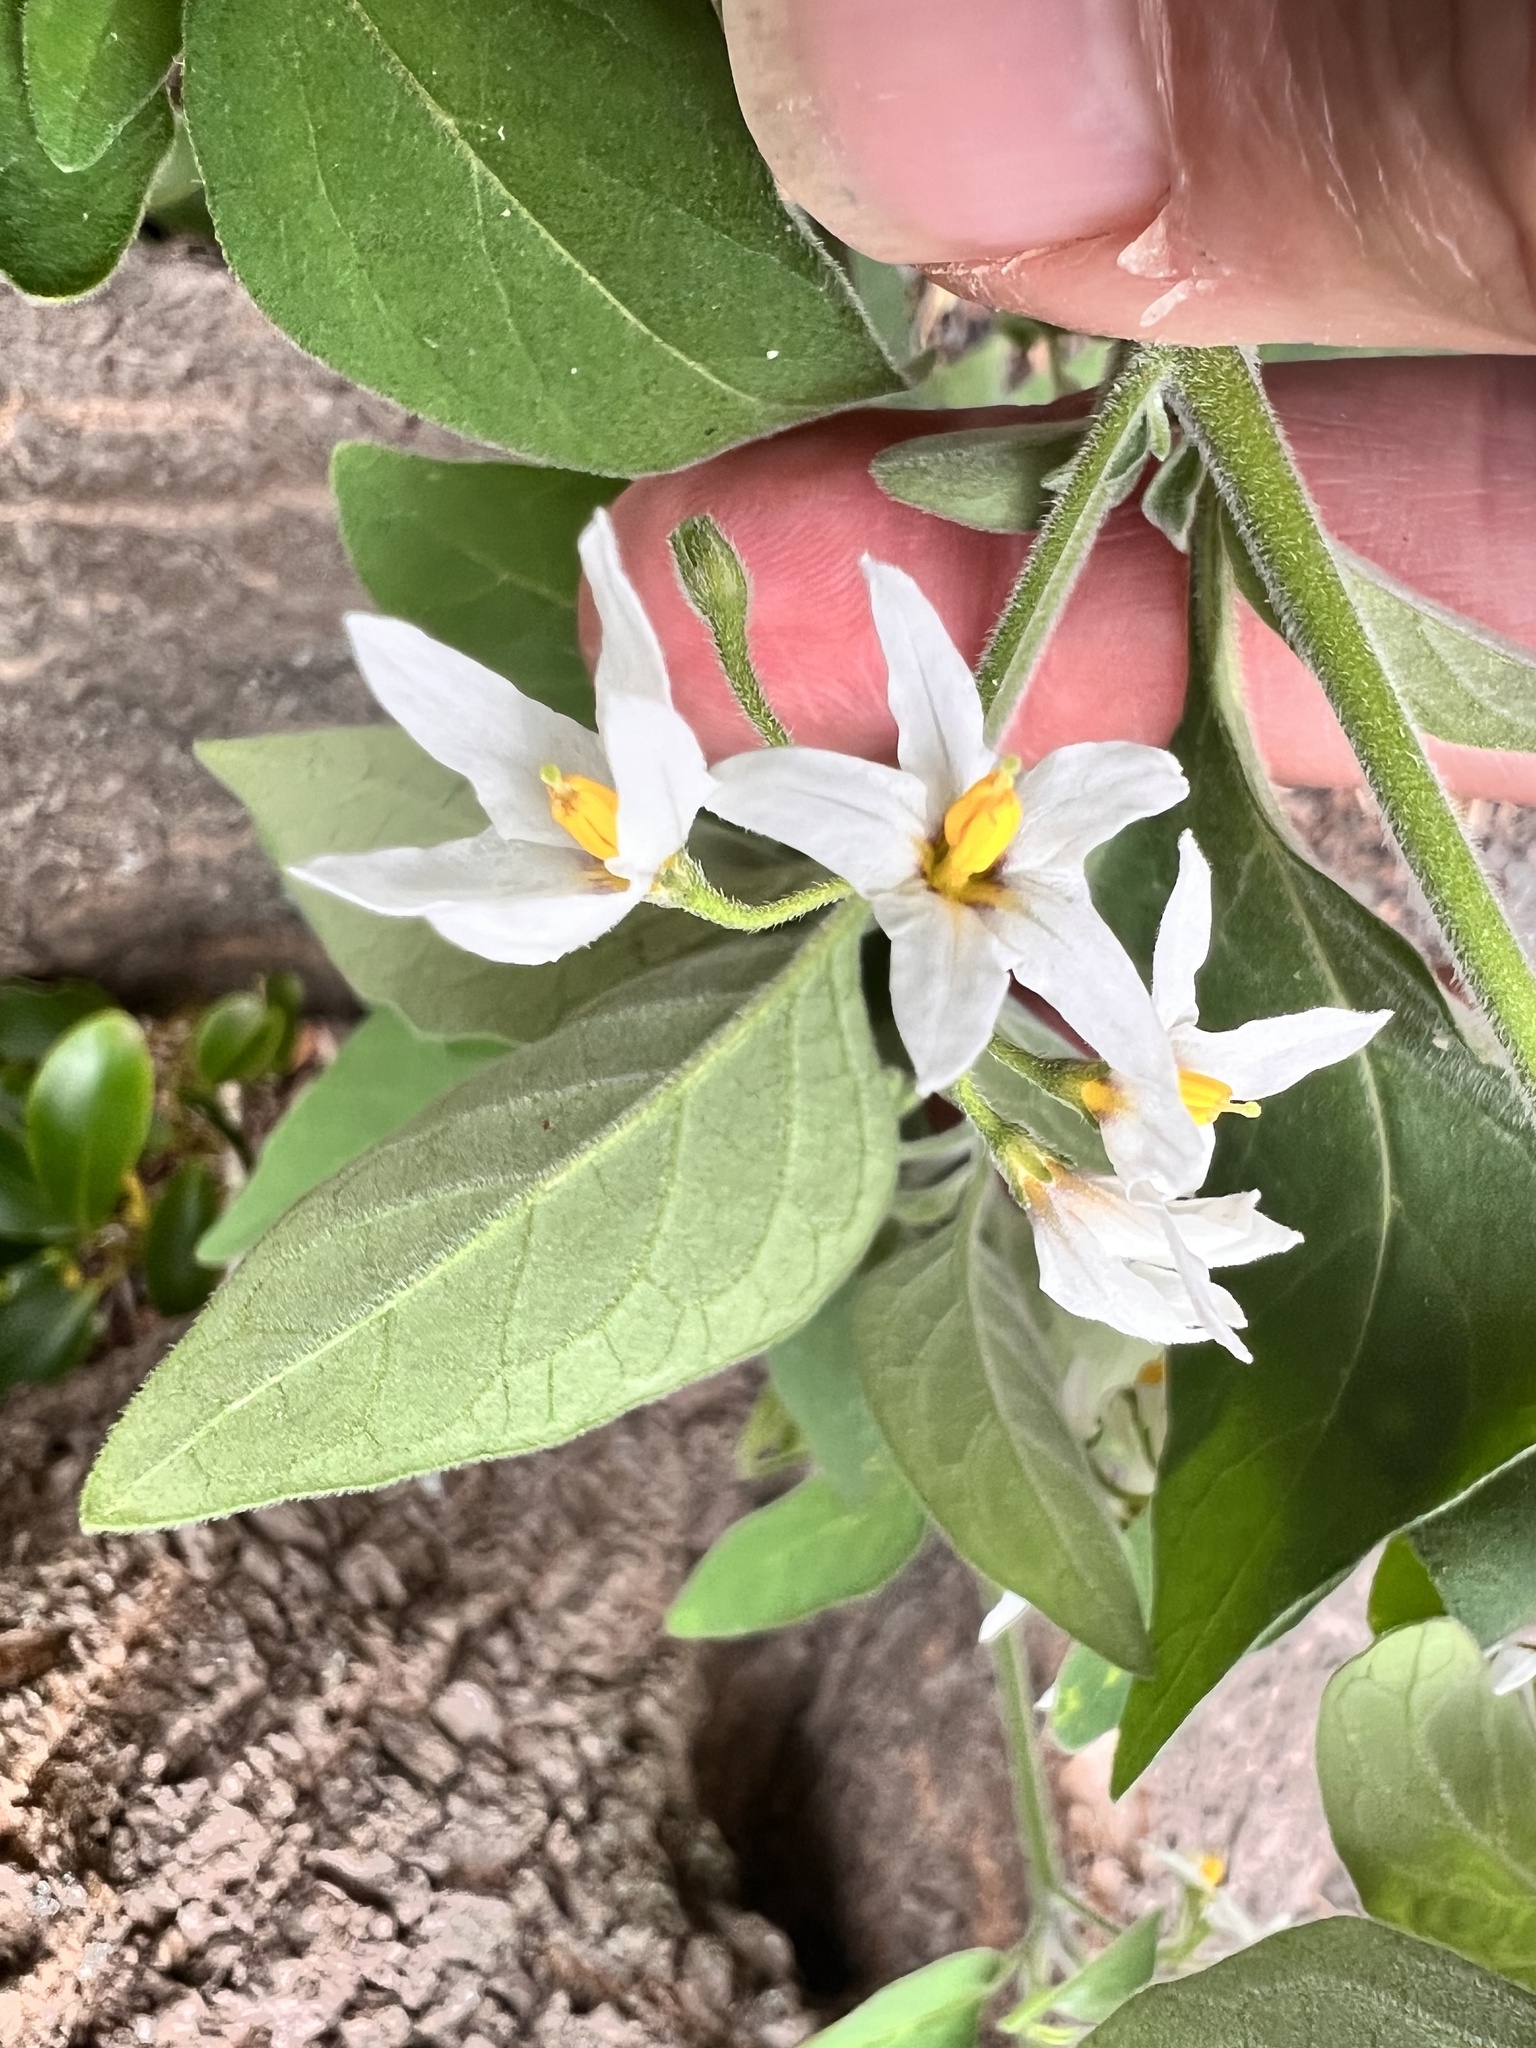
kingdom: Plantae
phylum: Tracheophyta
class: Magnoliopsida
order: Solanales
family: Solanaceae
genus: Solanum
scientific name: Solanum chenopodioides
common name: Tall nightshade
